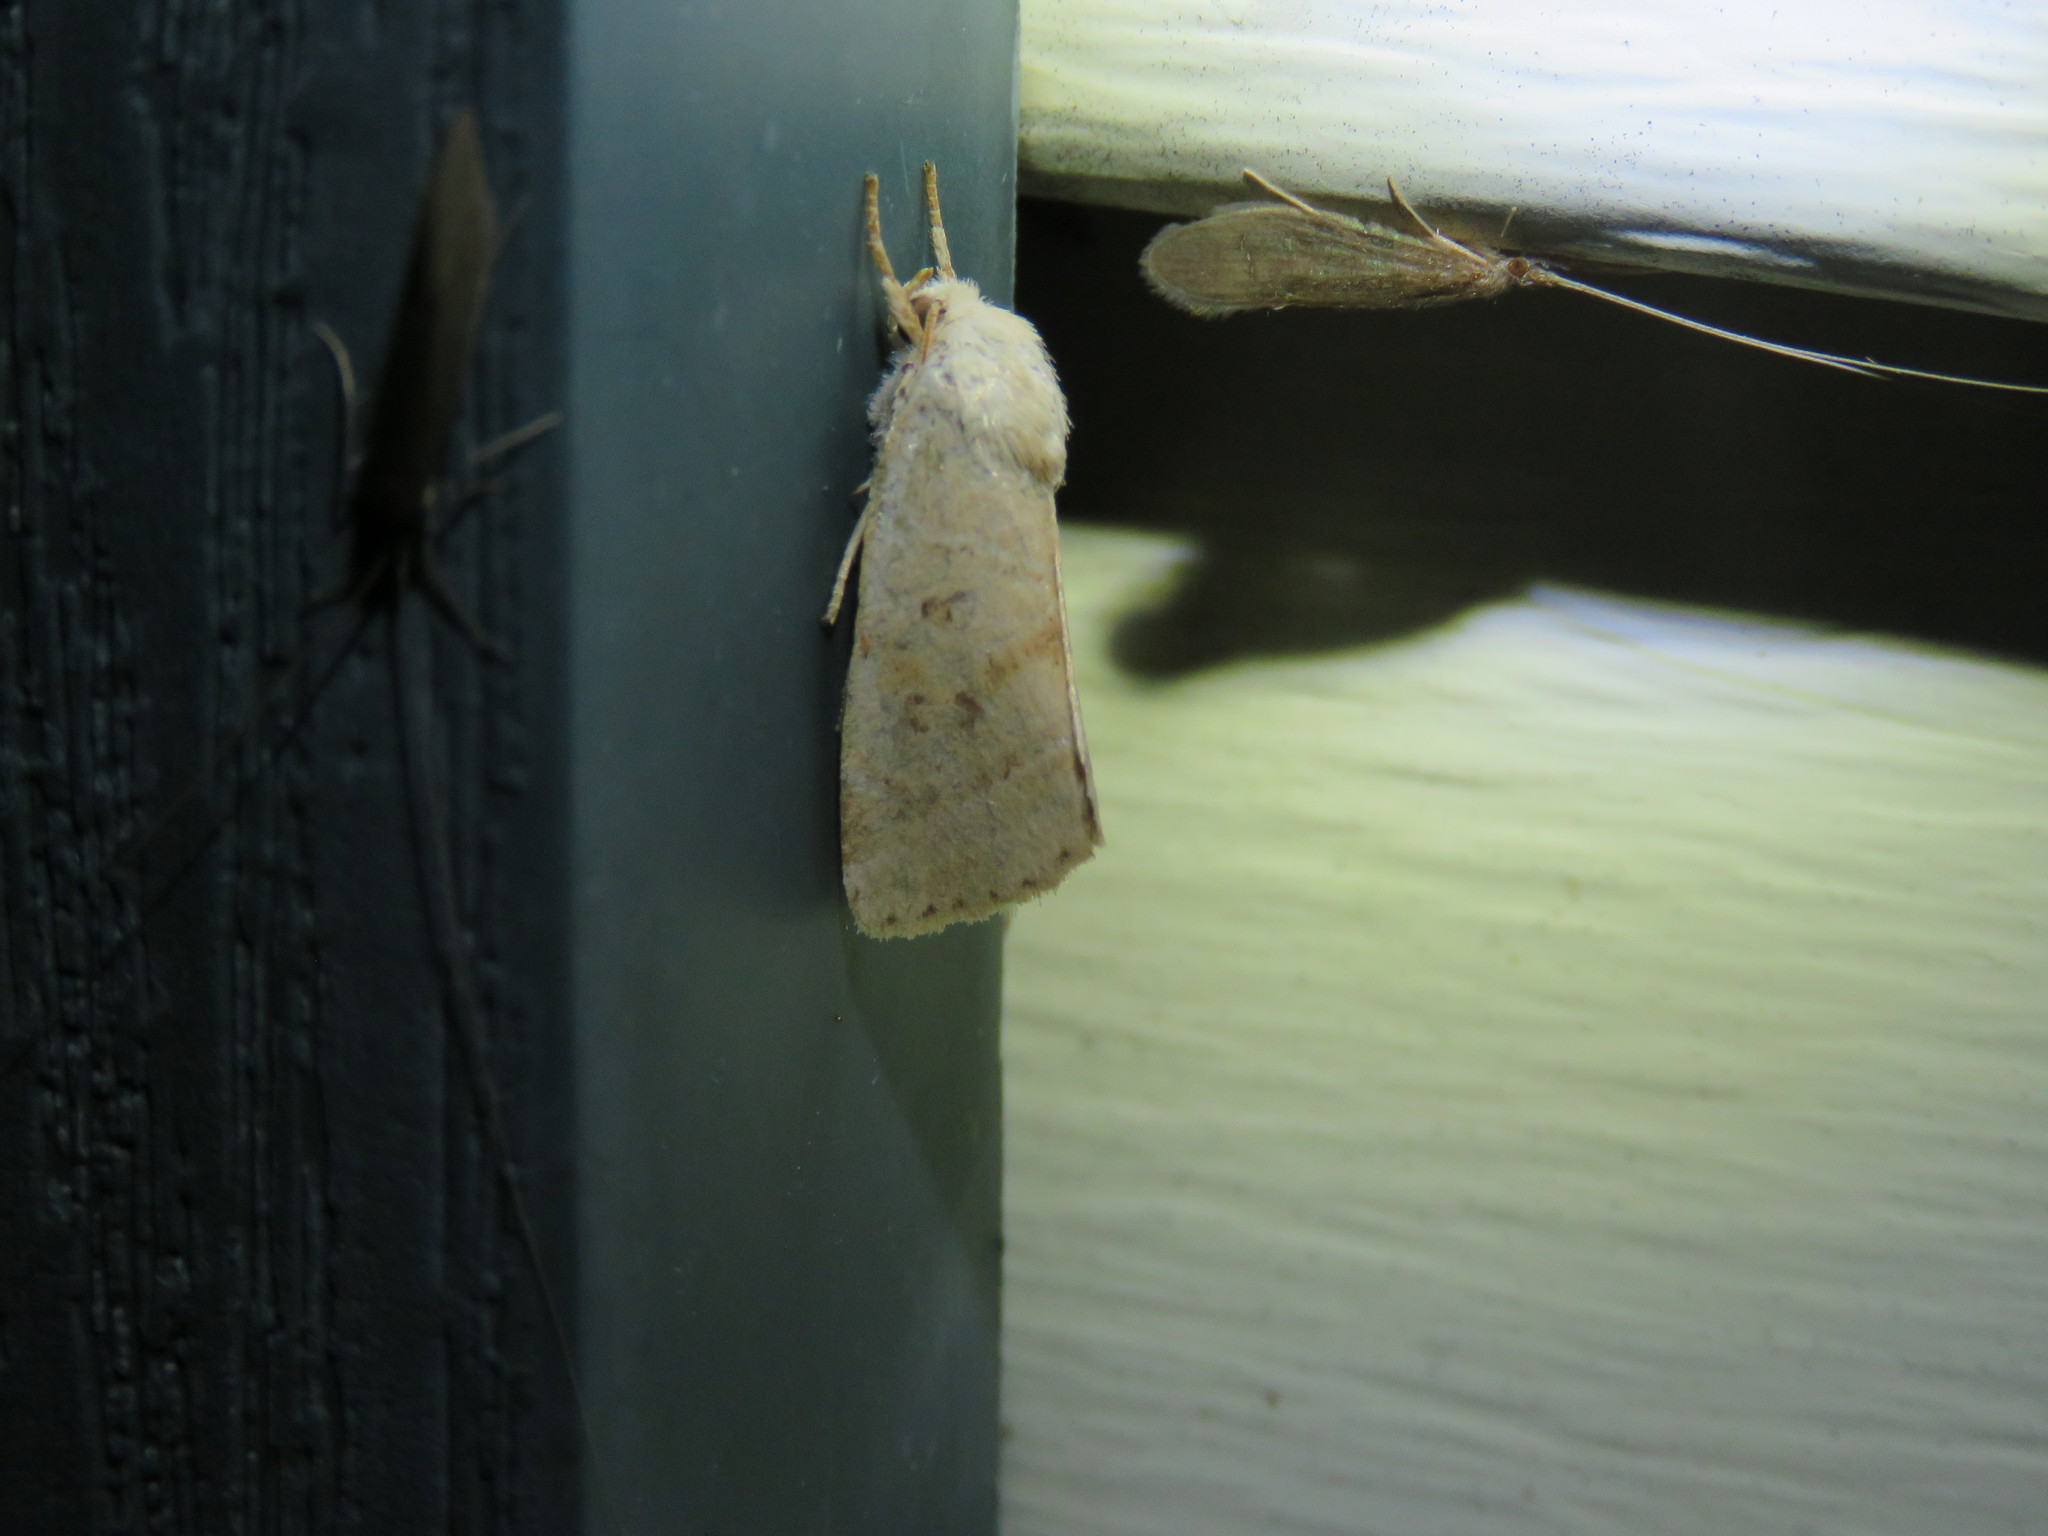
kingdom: Animalia
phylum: Arthropoda
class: Insecta
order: Lepidoptera
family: Noctuidae
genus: Cosmia
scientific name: Cosmia calami
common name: American dun-bar moth
